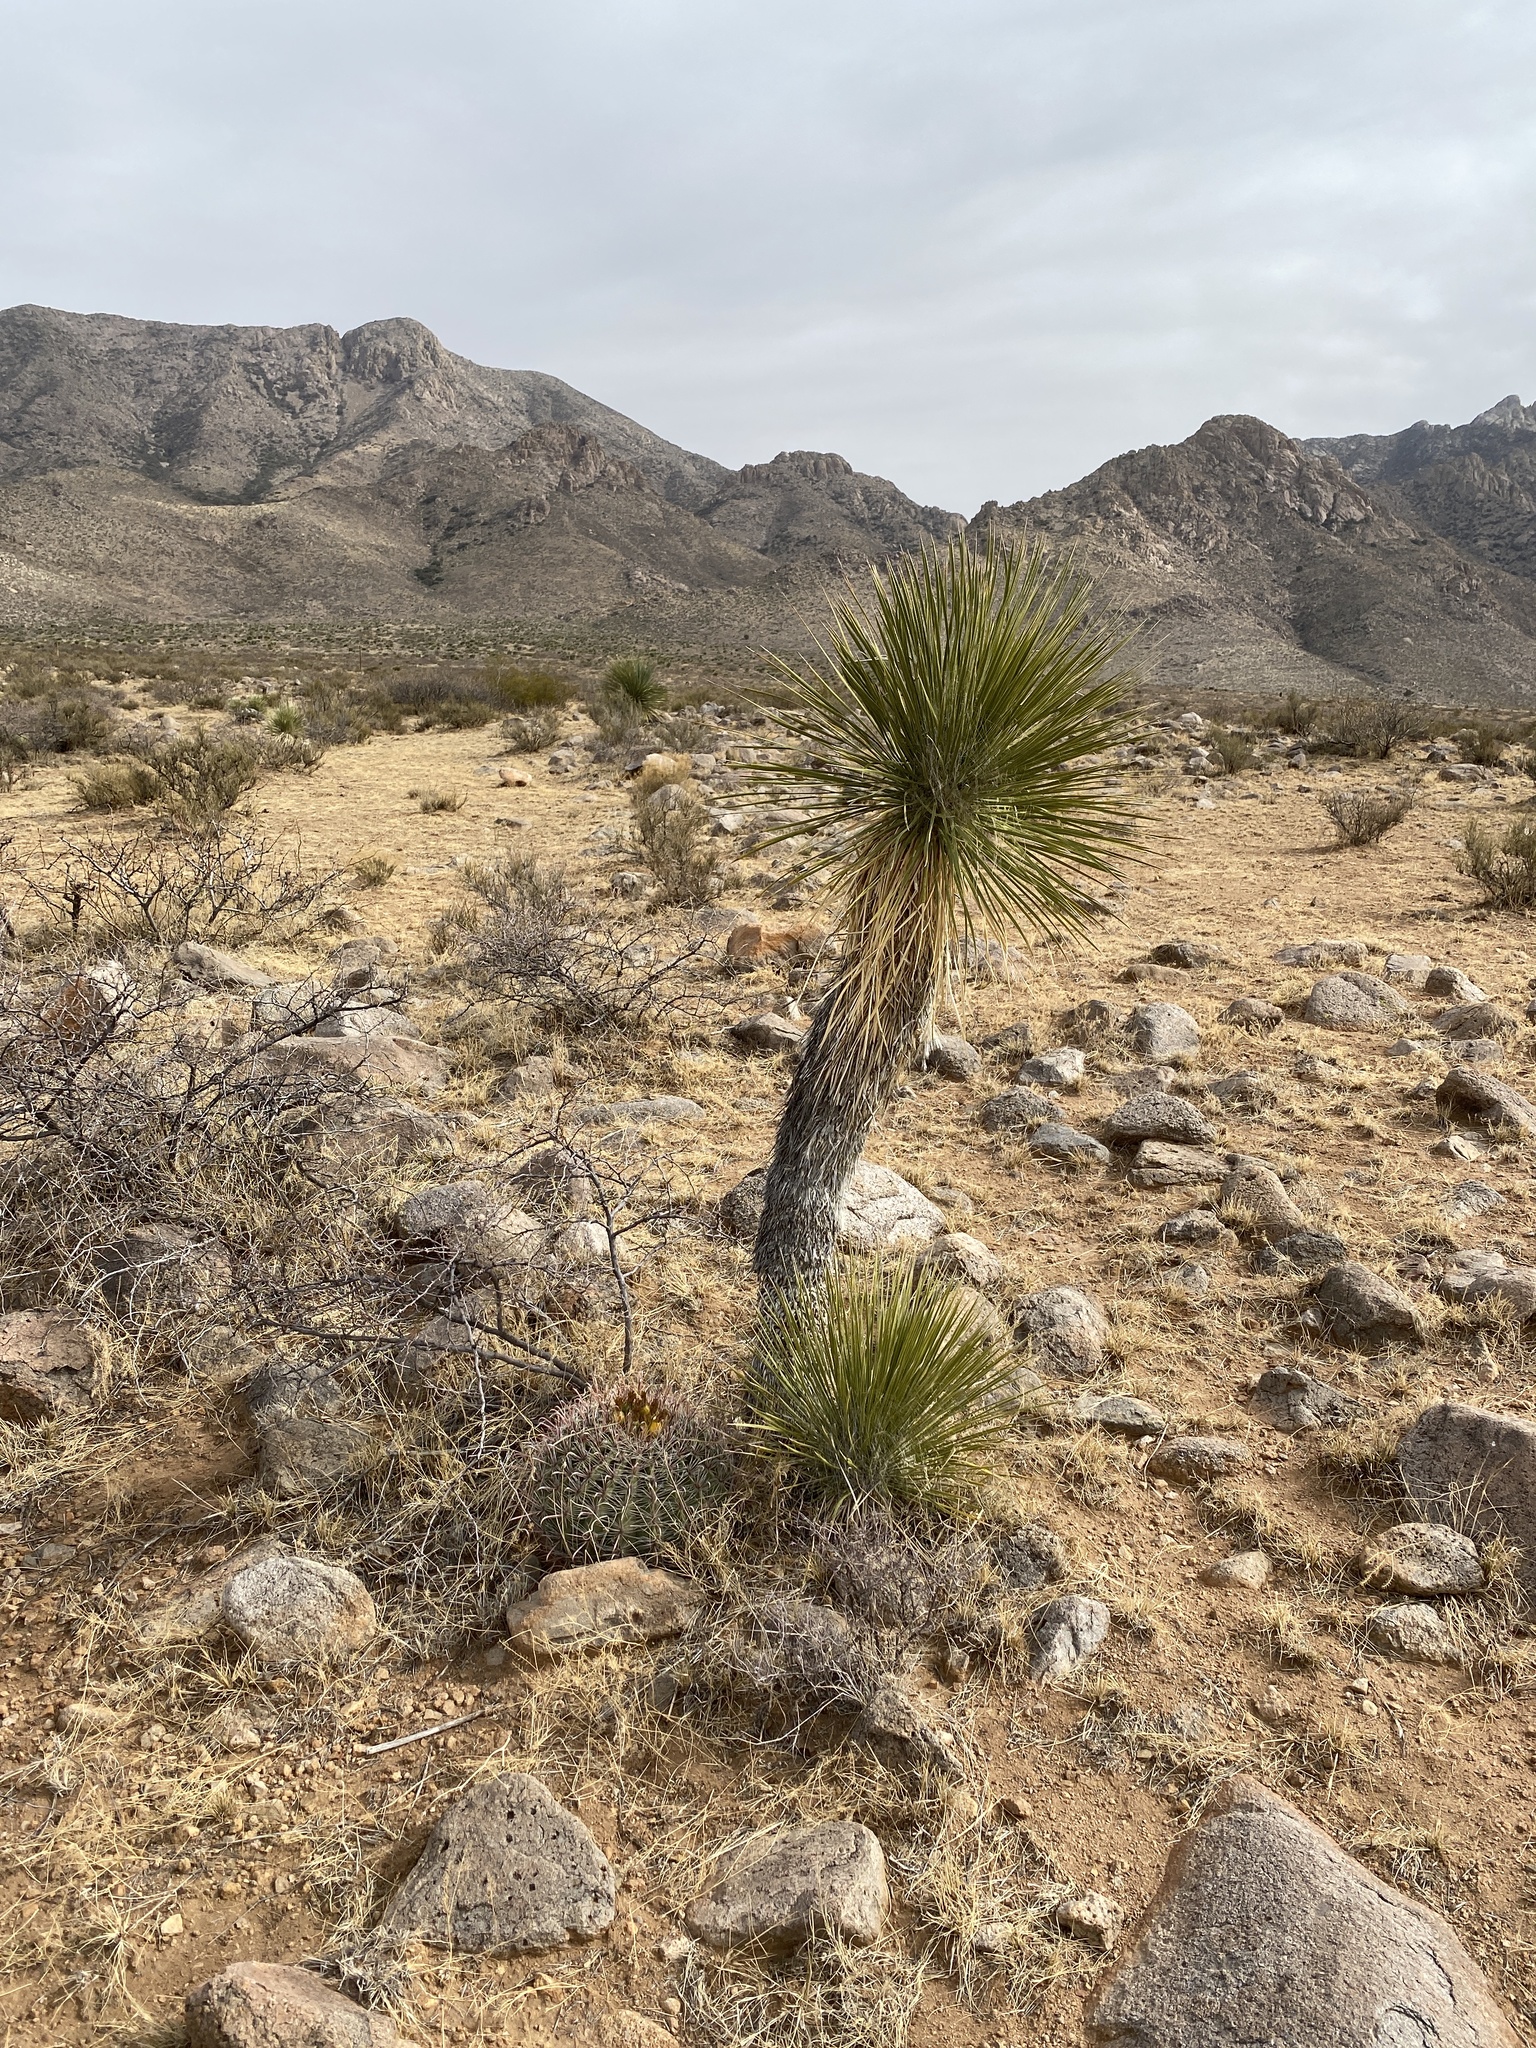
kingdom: Plantae
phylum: Tracheophyta
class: Liliopsida
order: Asparagales
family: Asparagaceae
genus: Yucca
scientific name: Yucca elata
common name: Palmella
